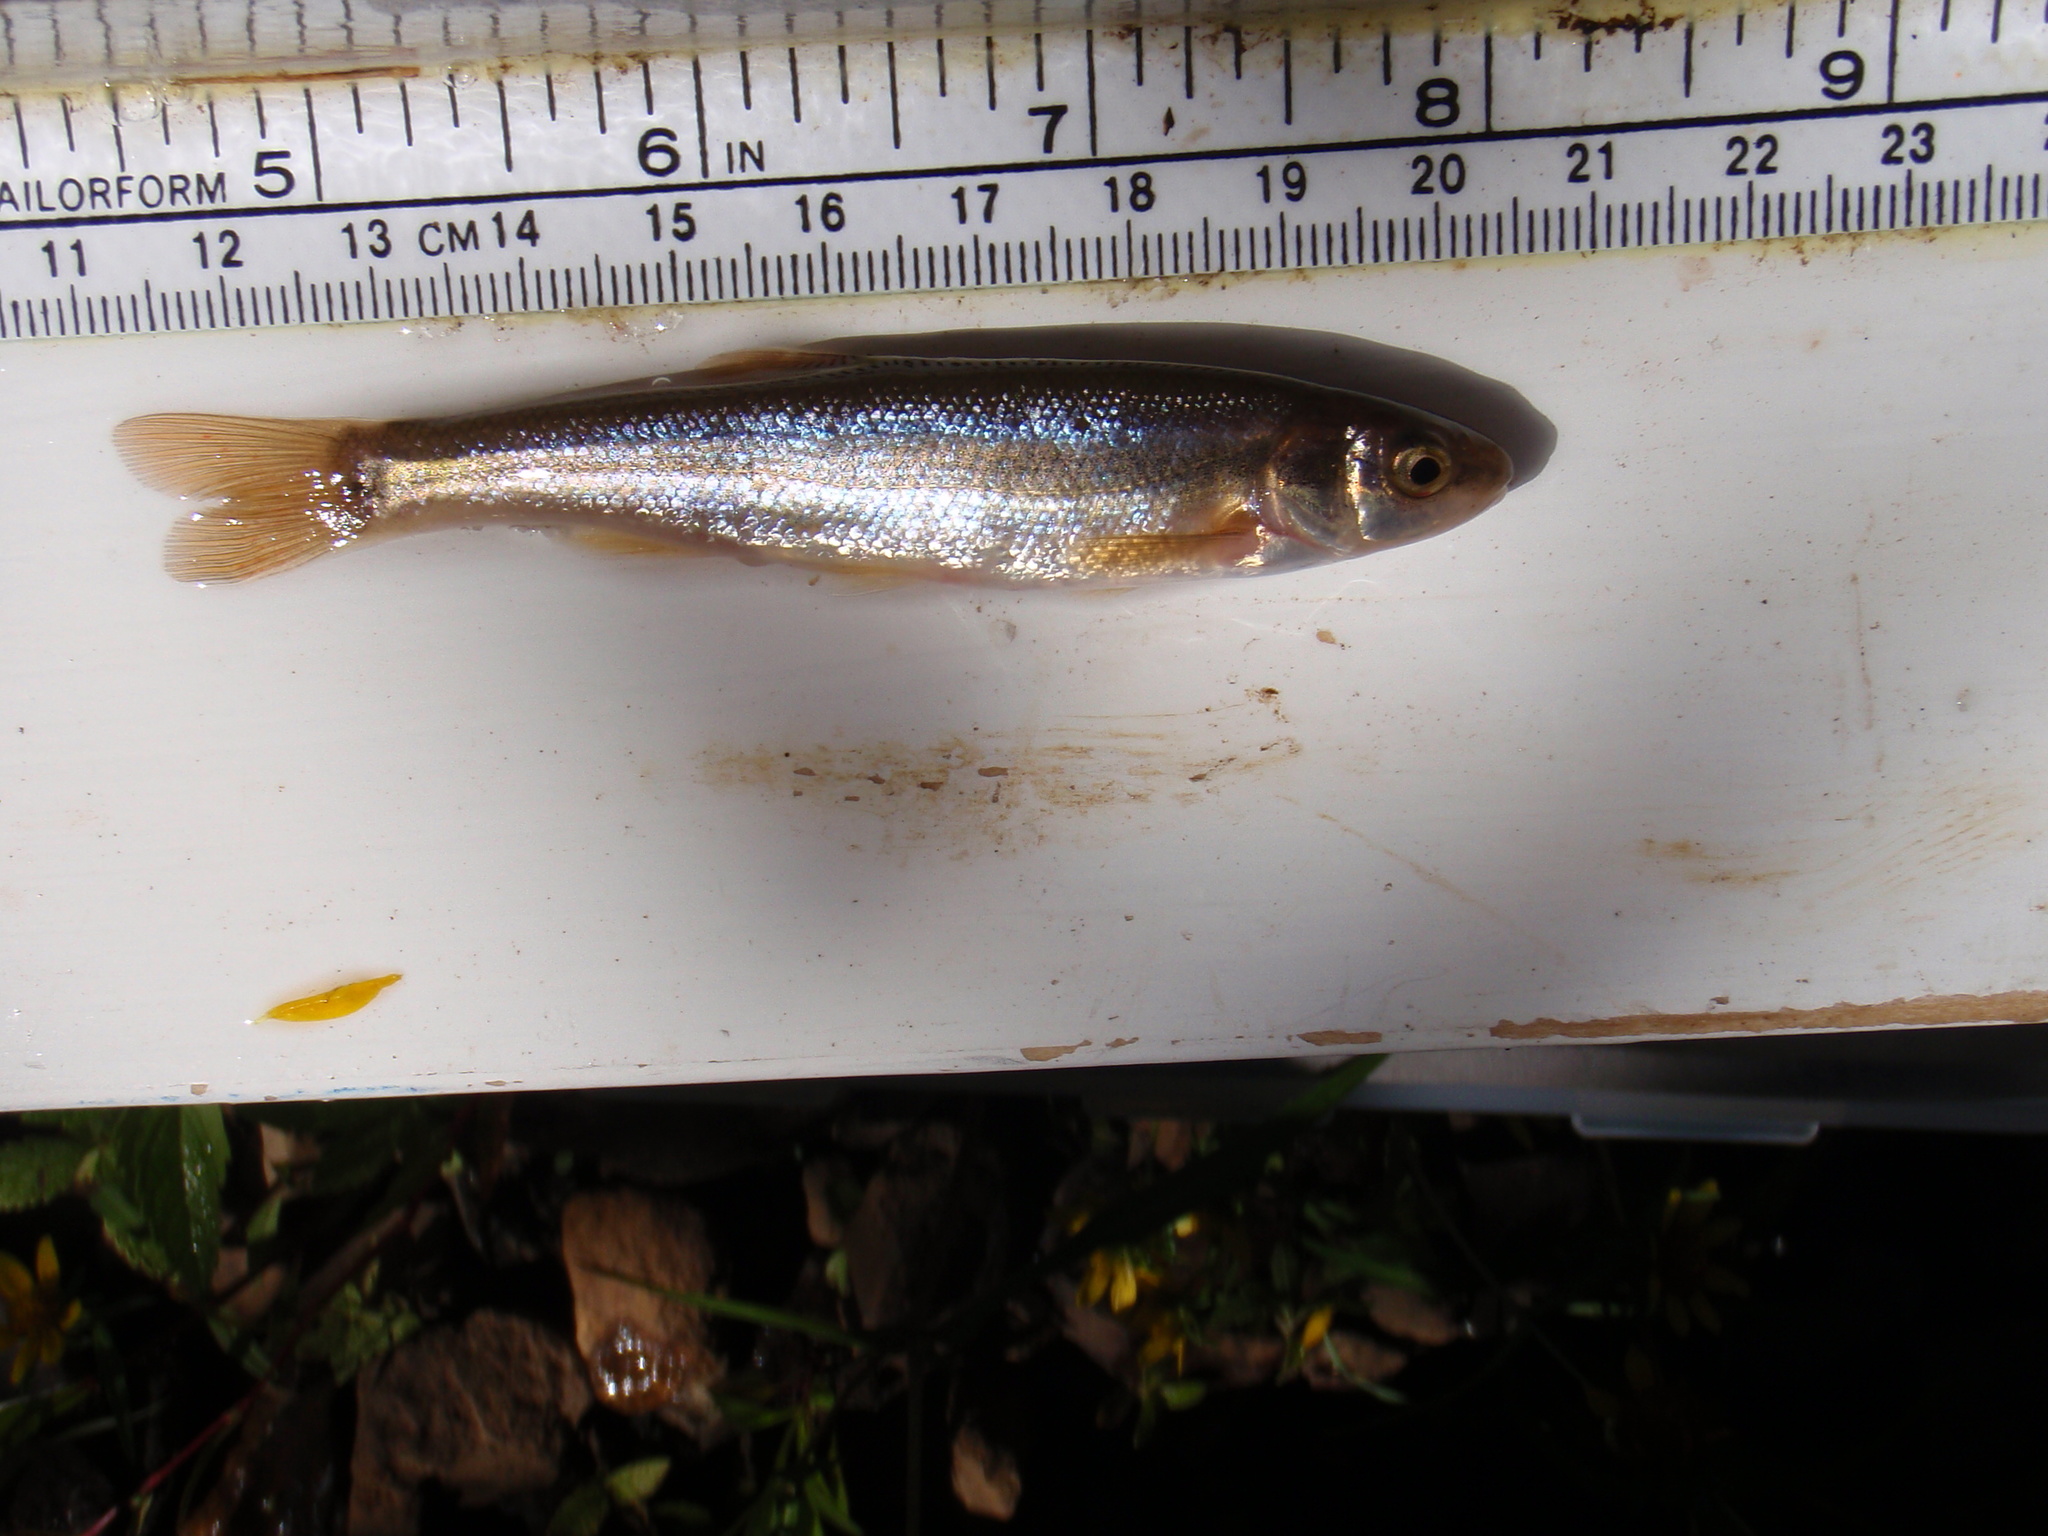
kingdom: Animalia
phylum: Chordata
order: Cypriniformes
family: Cyprinidae
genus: Couesius
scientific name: Couesius plumbeus
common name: Lake chub
